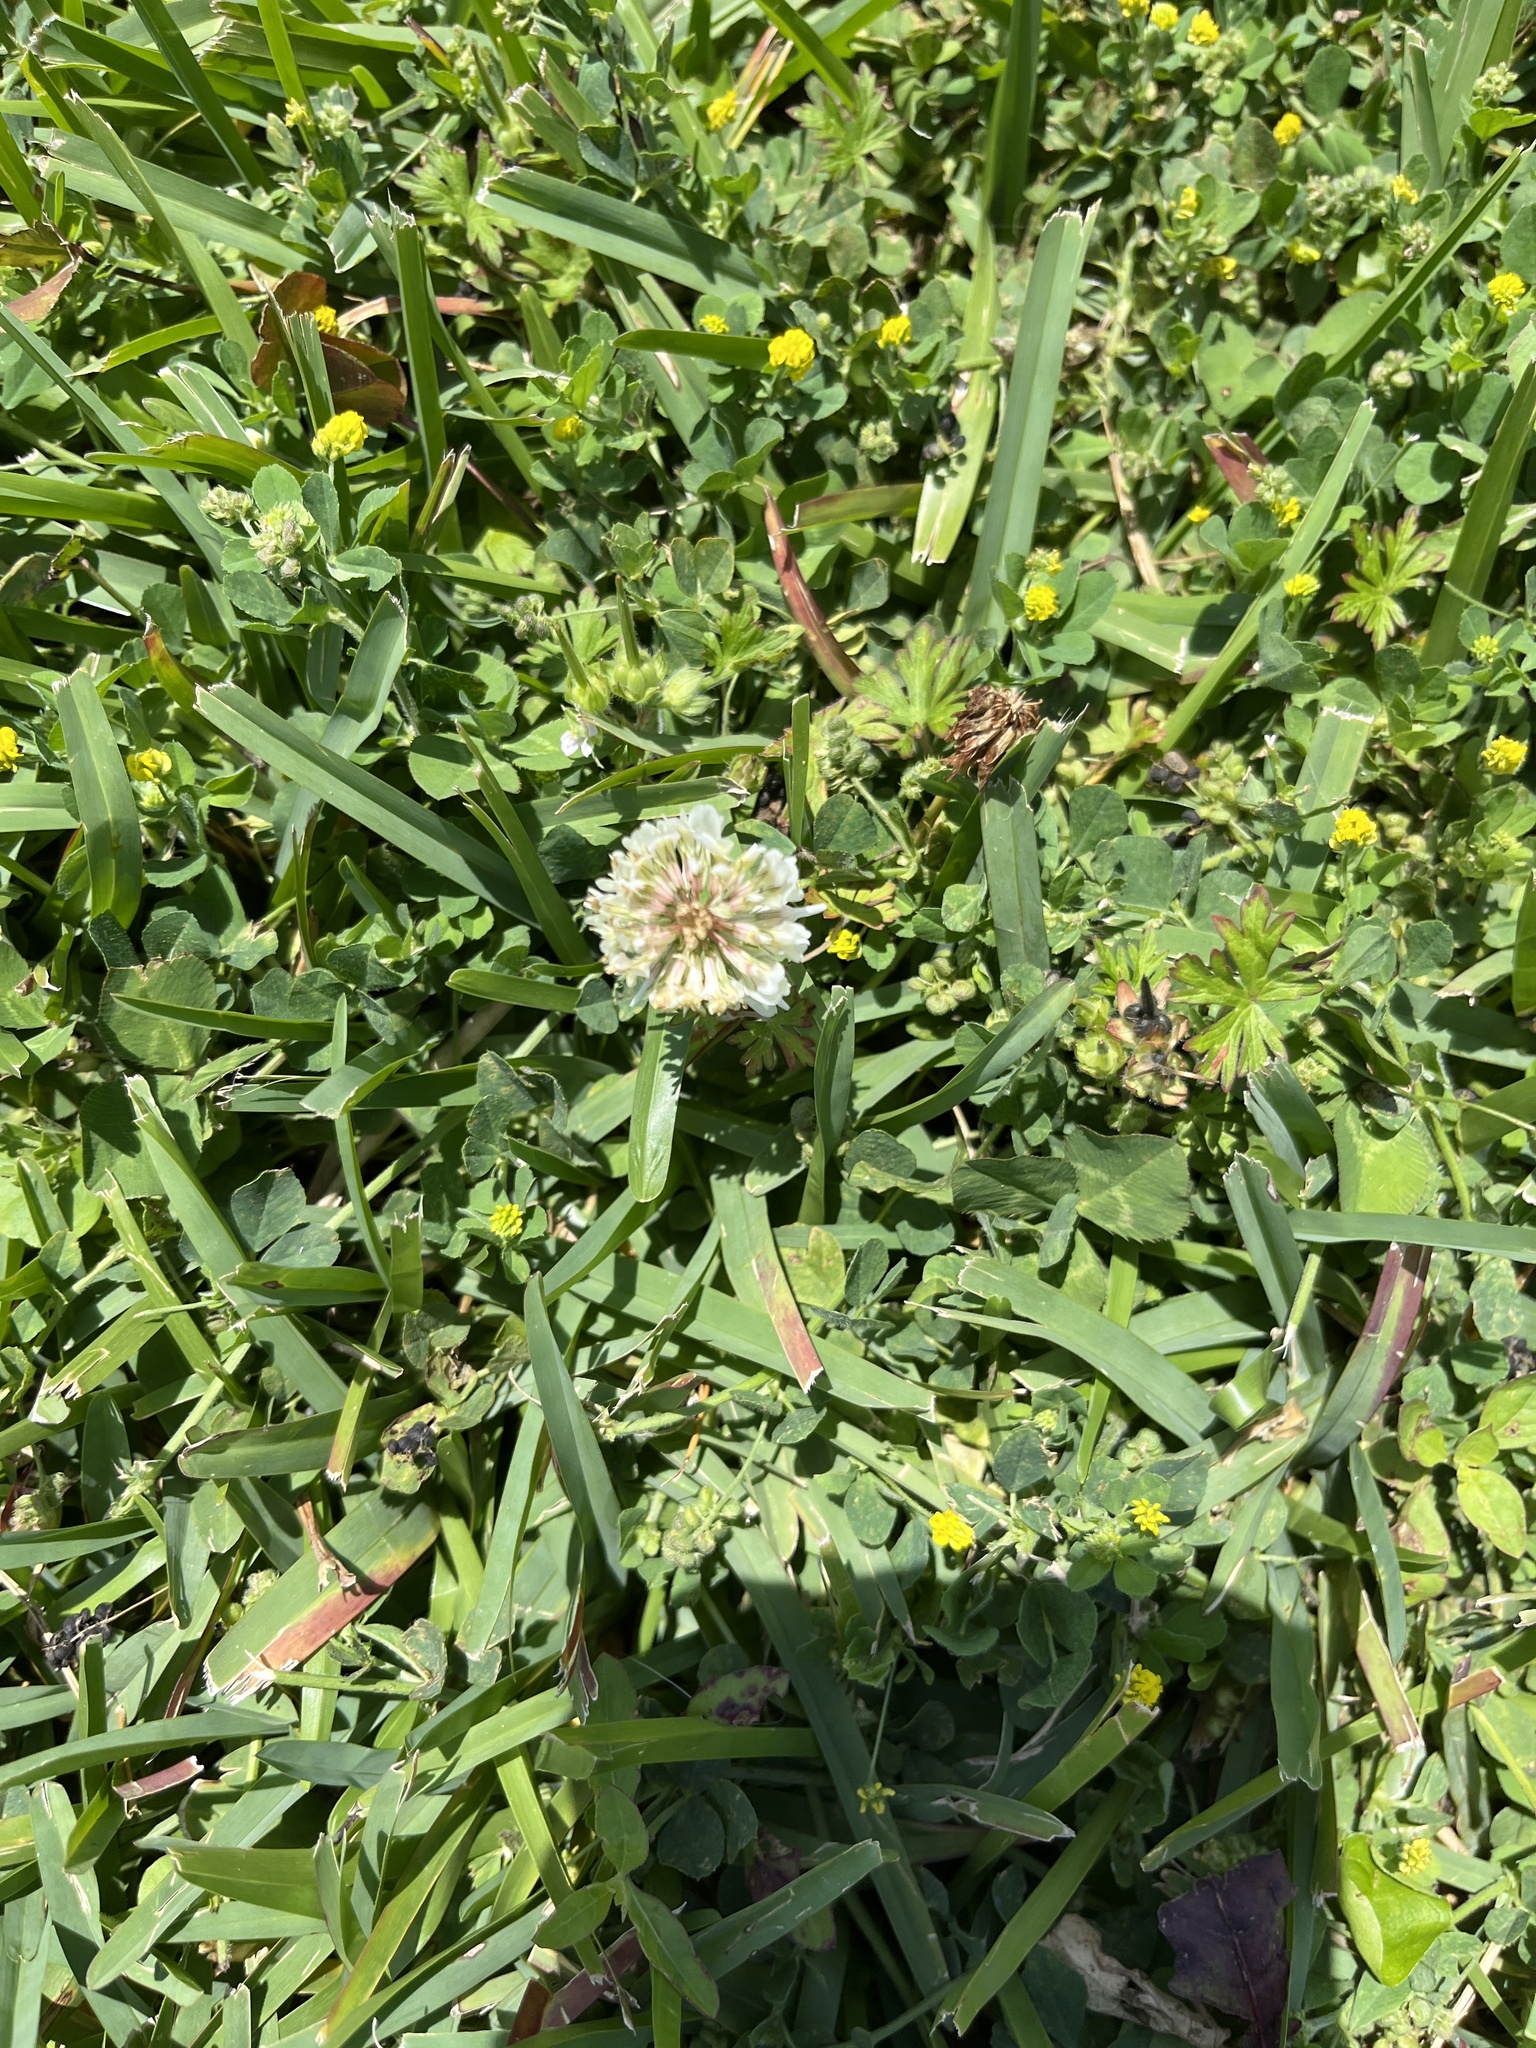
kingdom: Plantae
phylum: Tracheophyta
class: Magnoliopsida
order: Fabales
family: Fabaceae
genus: Trifolium
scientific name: Trifolium repens
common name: White clover
